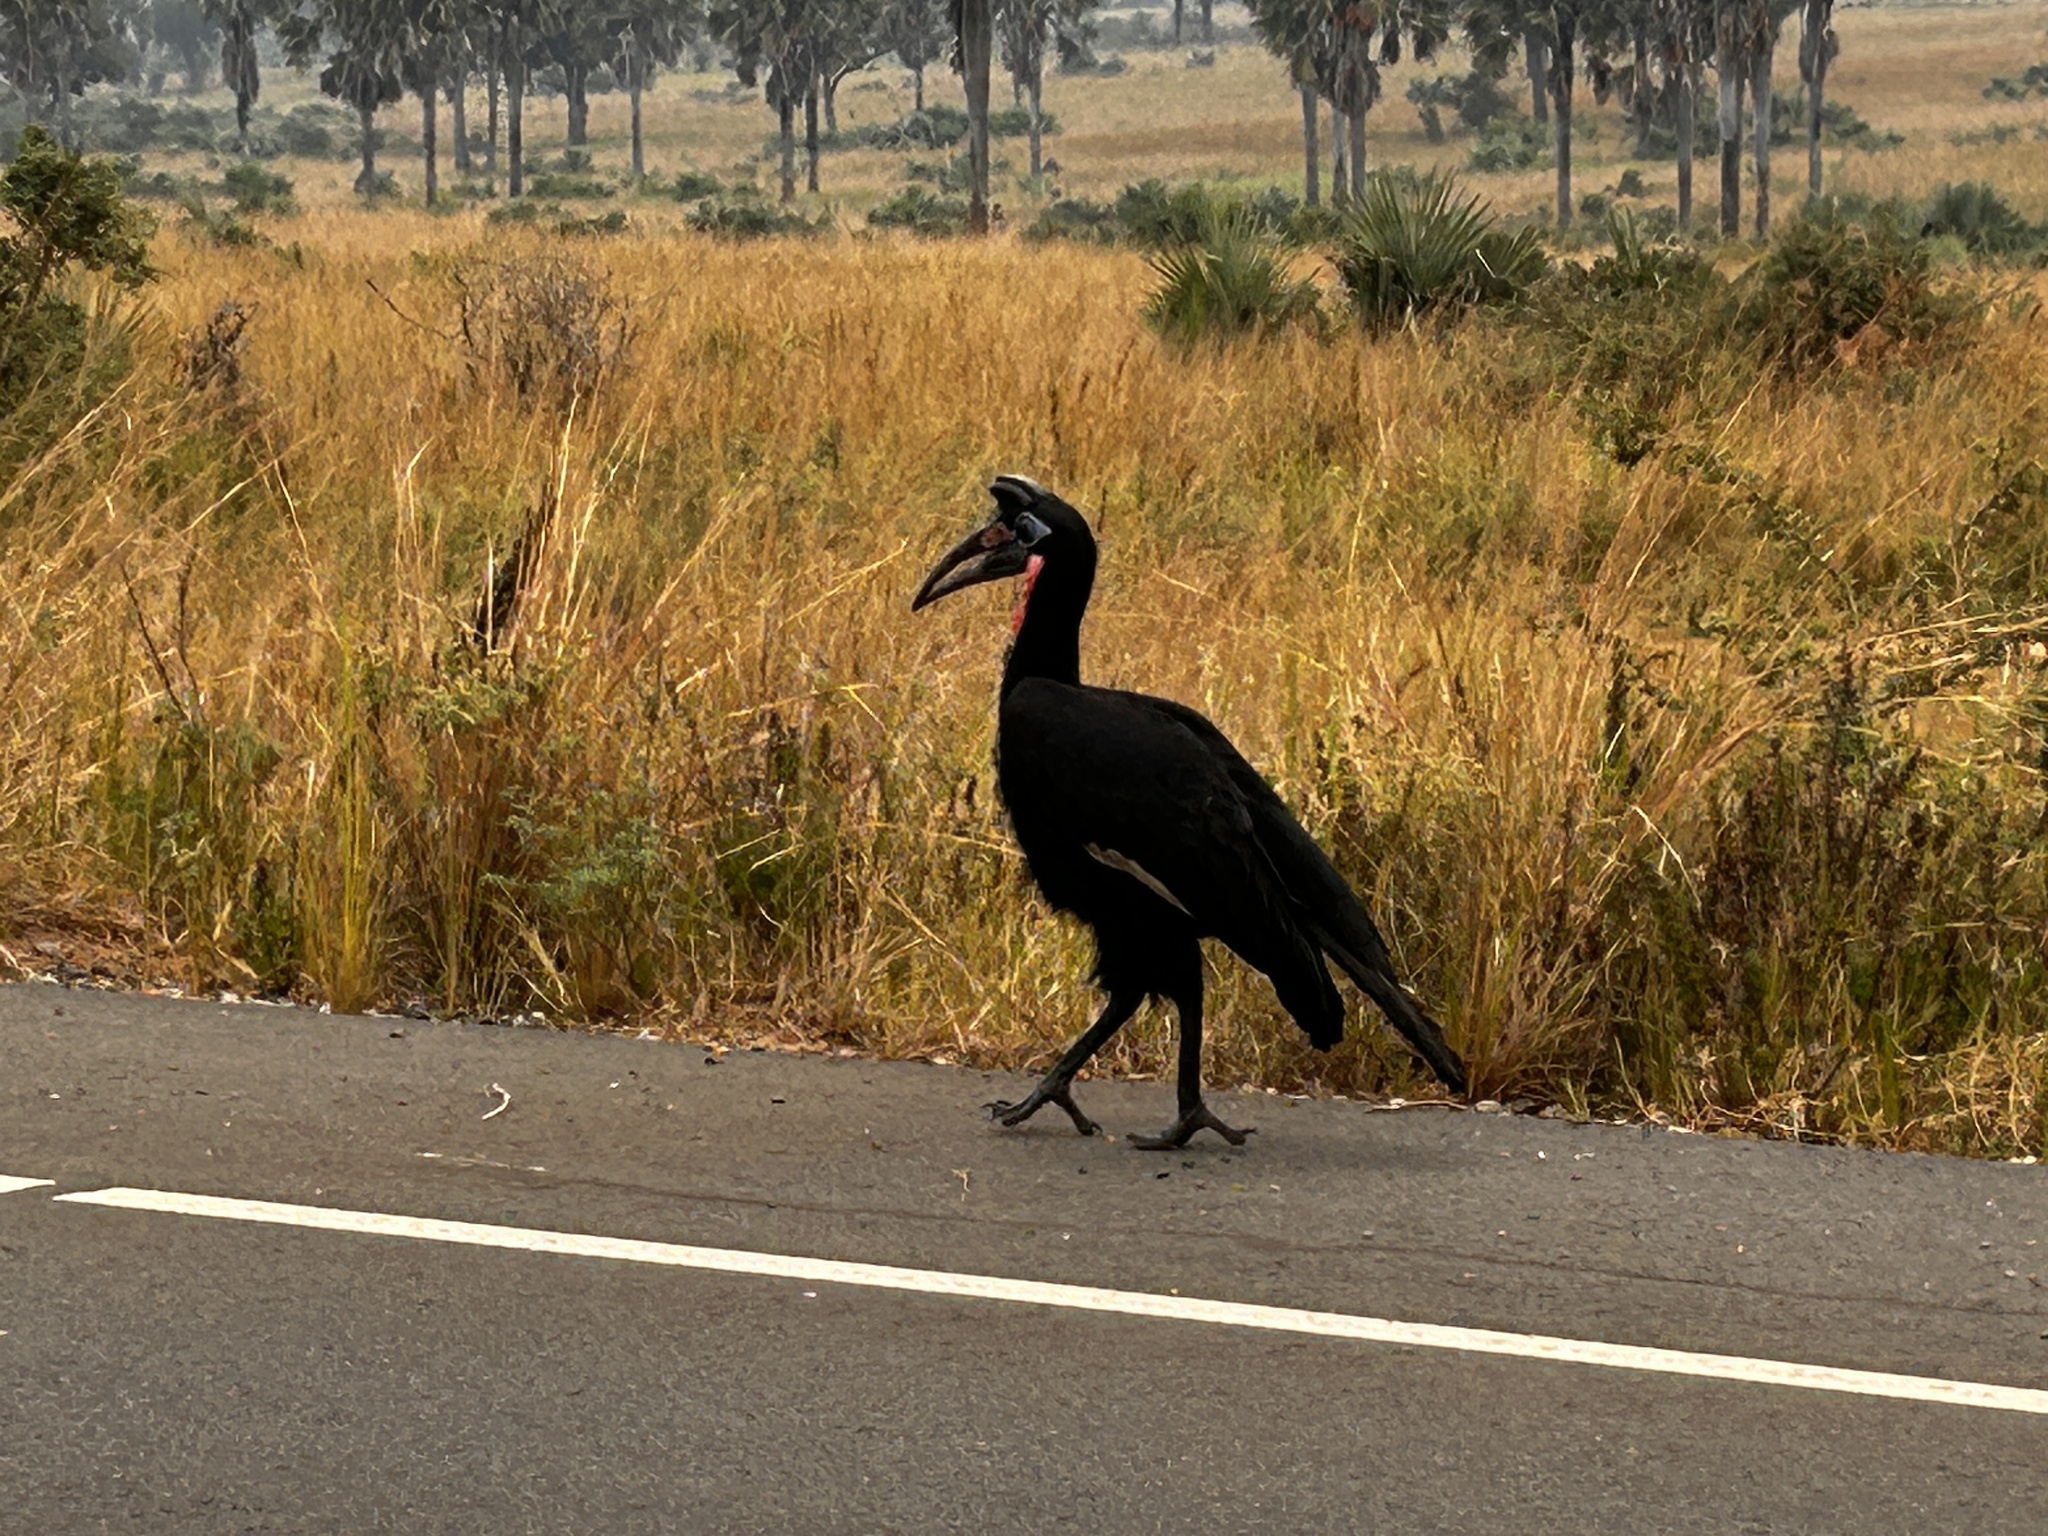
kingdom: Animalia
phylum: Chordata
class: Aves
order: Bucerotiformes
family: Bucorvidae
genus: Bucorvus
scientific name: Bucorvus abyssinicus
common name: Abyssinian ground hornbill
